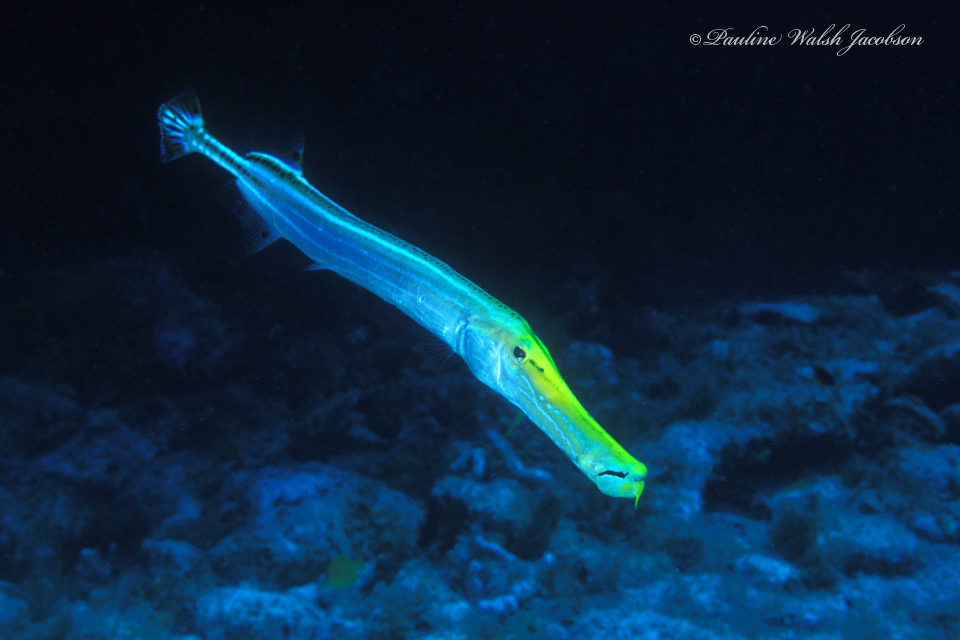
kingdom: Animalia
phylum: Chordata
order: Syngnathiformes
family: Aulostomidae
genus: Aulostomus
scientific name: Aulostomus maculatus
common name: West atlantic trumpetfish
